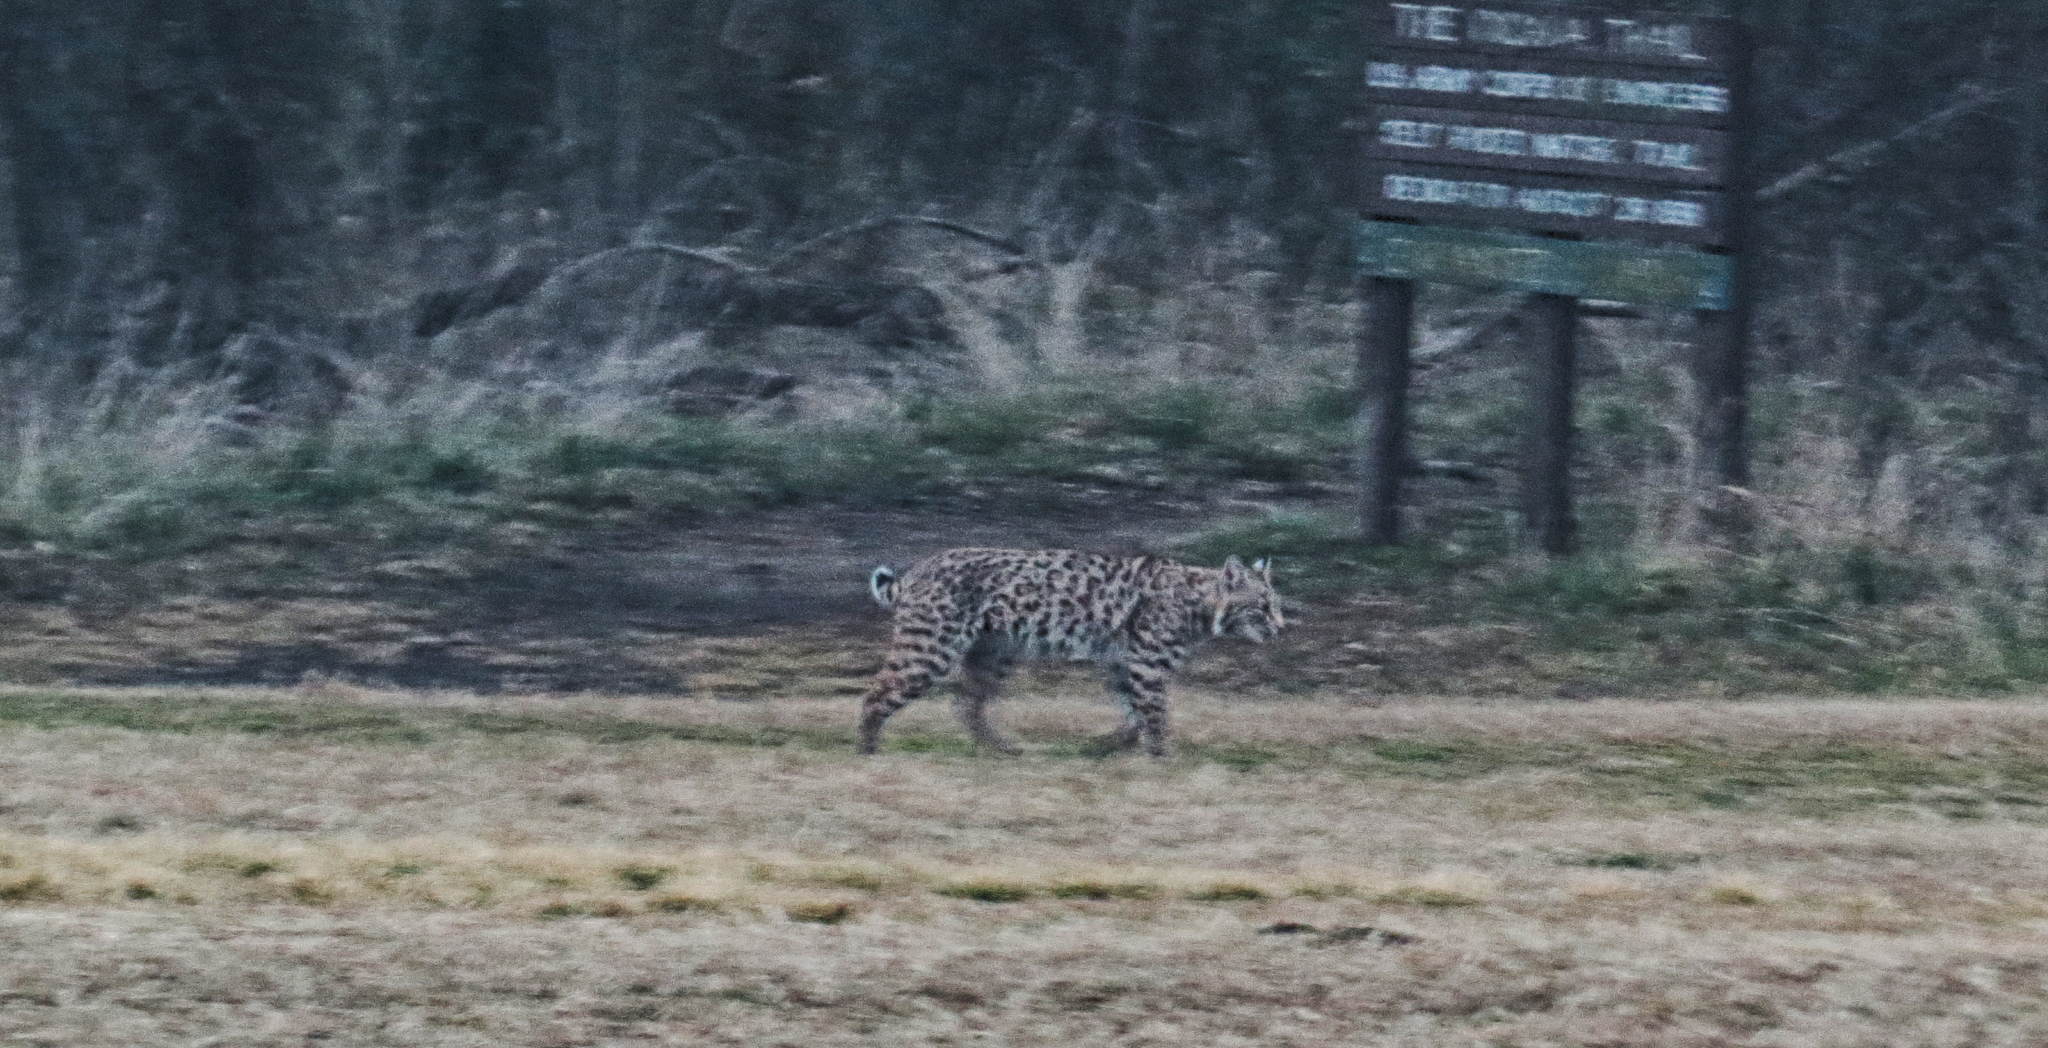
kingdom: Animalia
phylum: Chordata
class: Mammalia
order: Carnivora
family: Felidae
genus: Lynx
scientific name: Lynx rufus
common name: Bobcat
